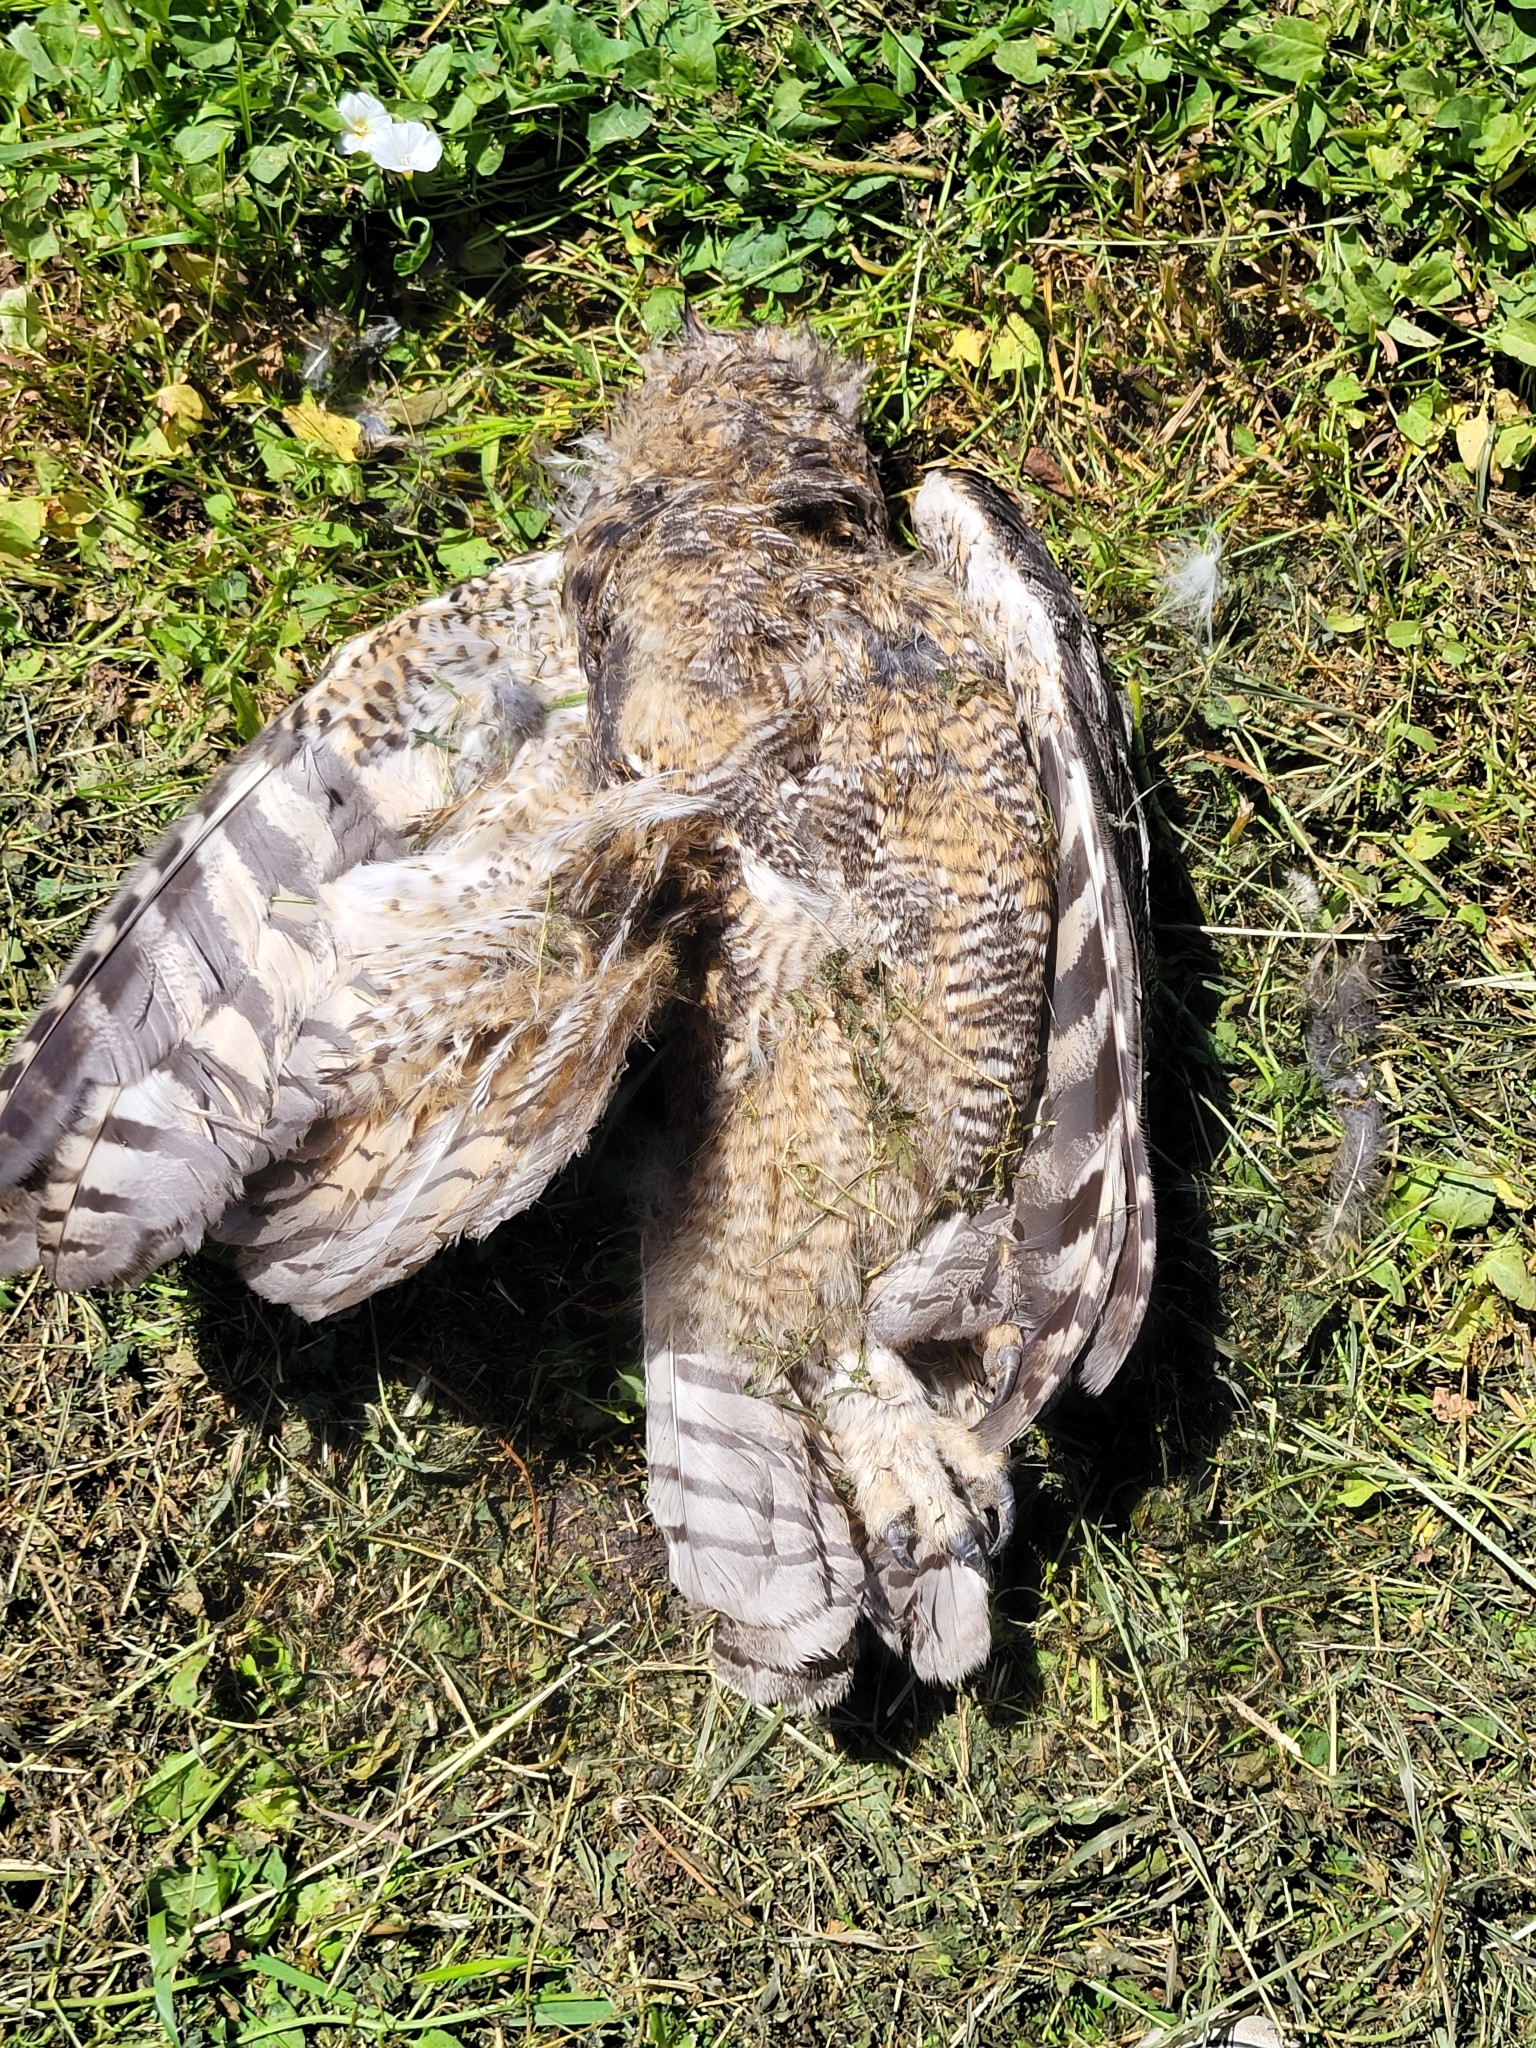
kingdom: Animalia
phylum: Chordata
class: Aves
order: Strigiformes
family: Strigidae
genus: Bubo
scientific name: Bubo virginianus
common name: Great horned owl
